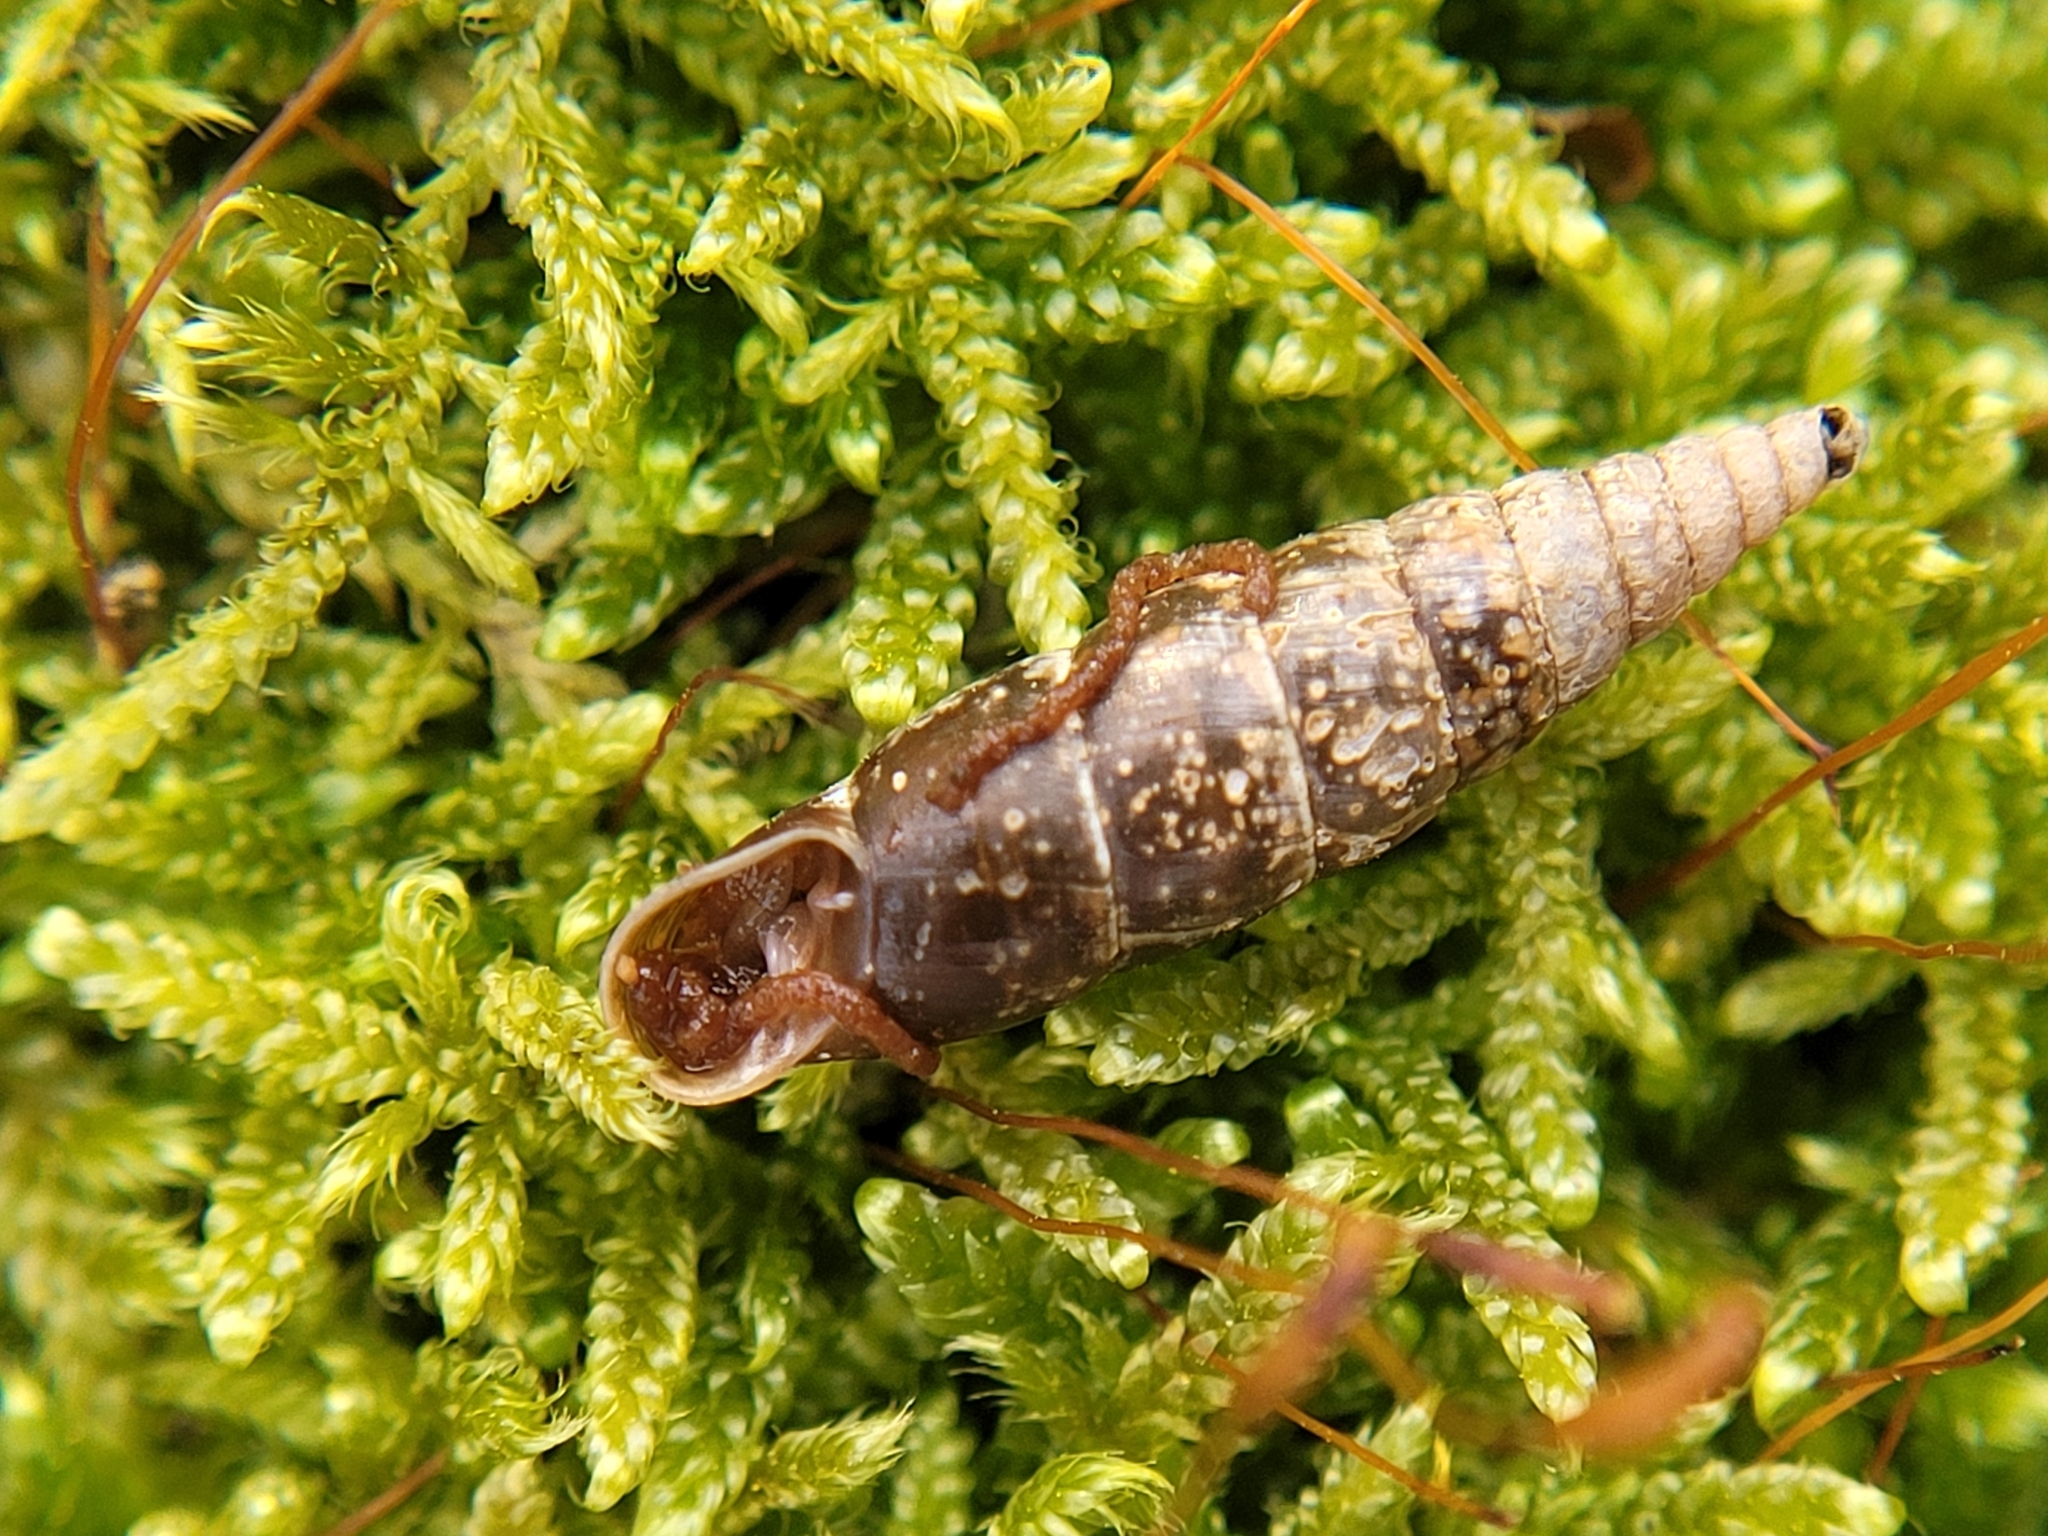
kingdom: Animalia
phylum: Mollusca
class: Gastropoda
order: Stylommatophora
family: Clausiliidae
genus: Cochlodina
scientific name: Cochlodina laminata
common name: Plaited door snail
